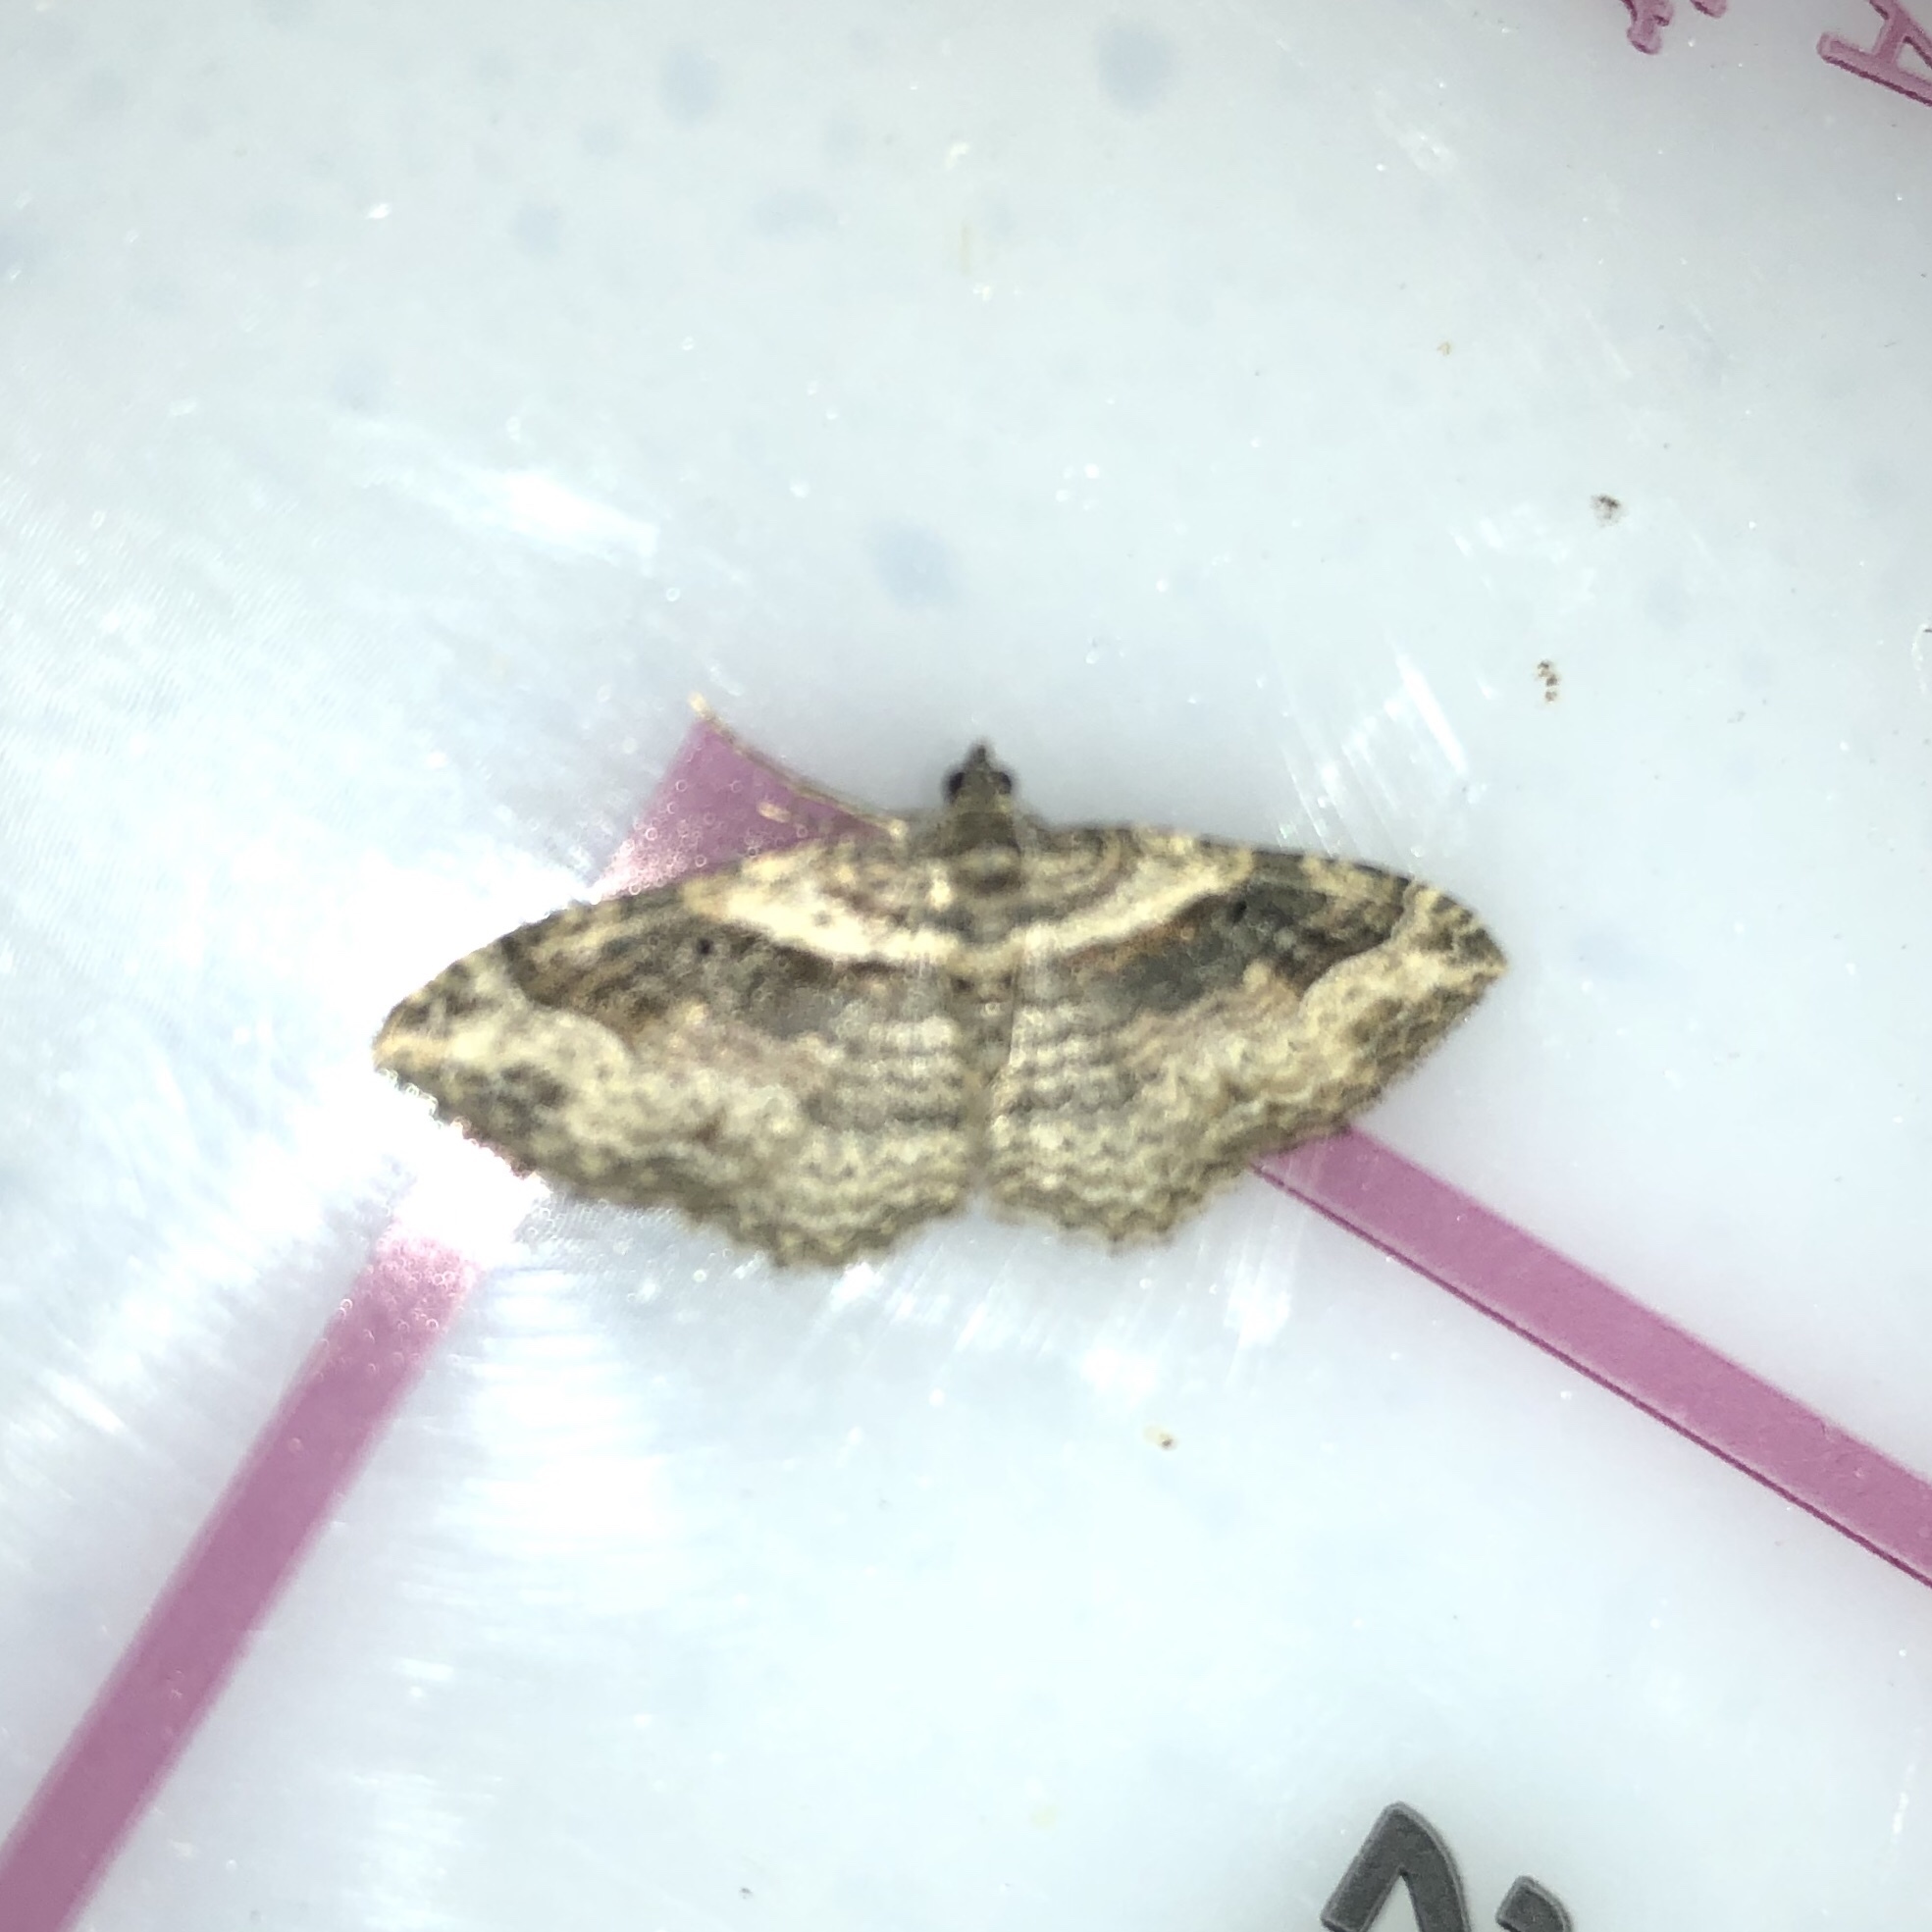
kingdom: Animalia
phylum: Arthropoda
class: Insecta
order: Lepidoptera
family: Geometridae
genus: Costaconvexa
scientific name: Costaconvexa centrostrigaria
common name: Bent-line carpet
